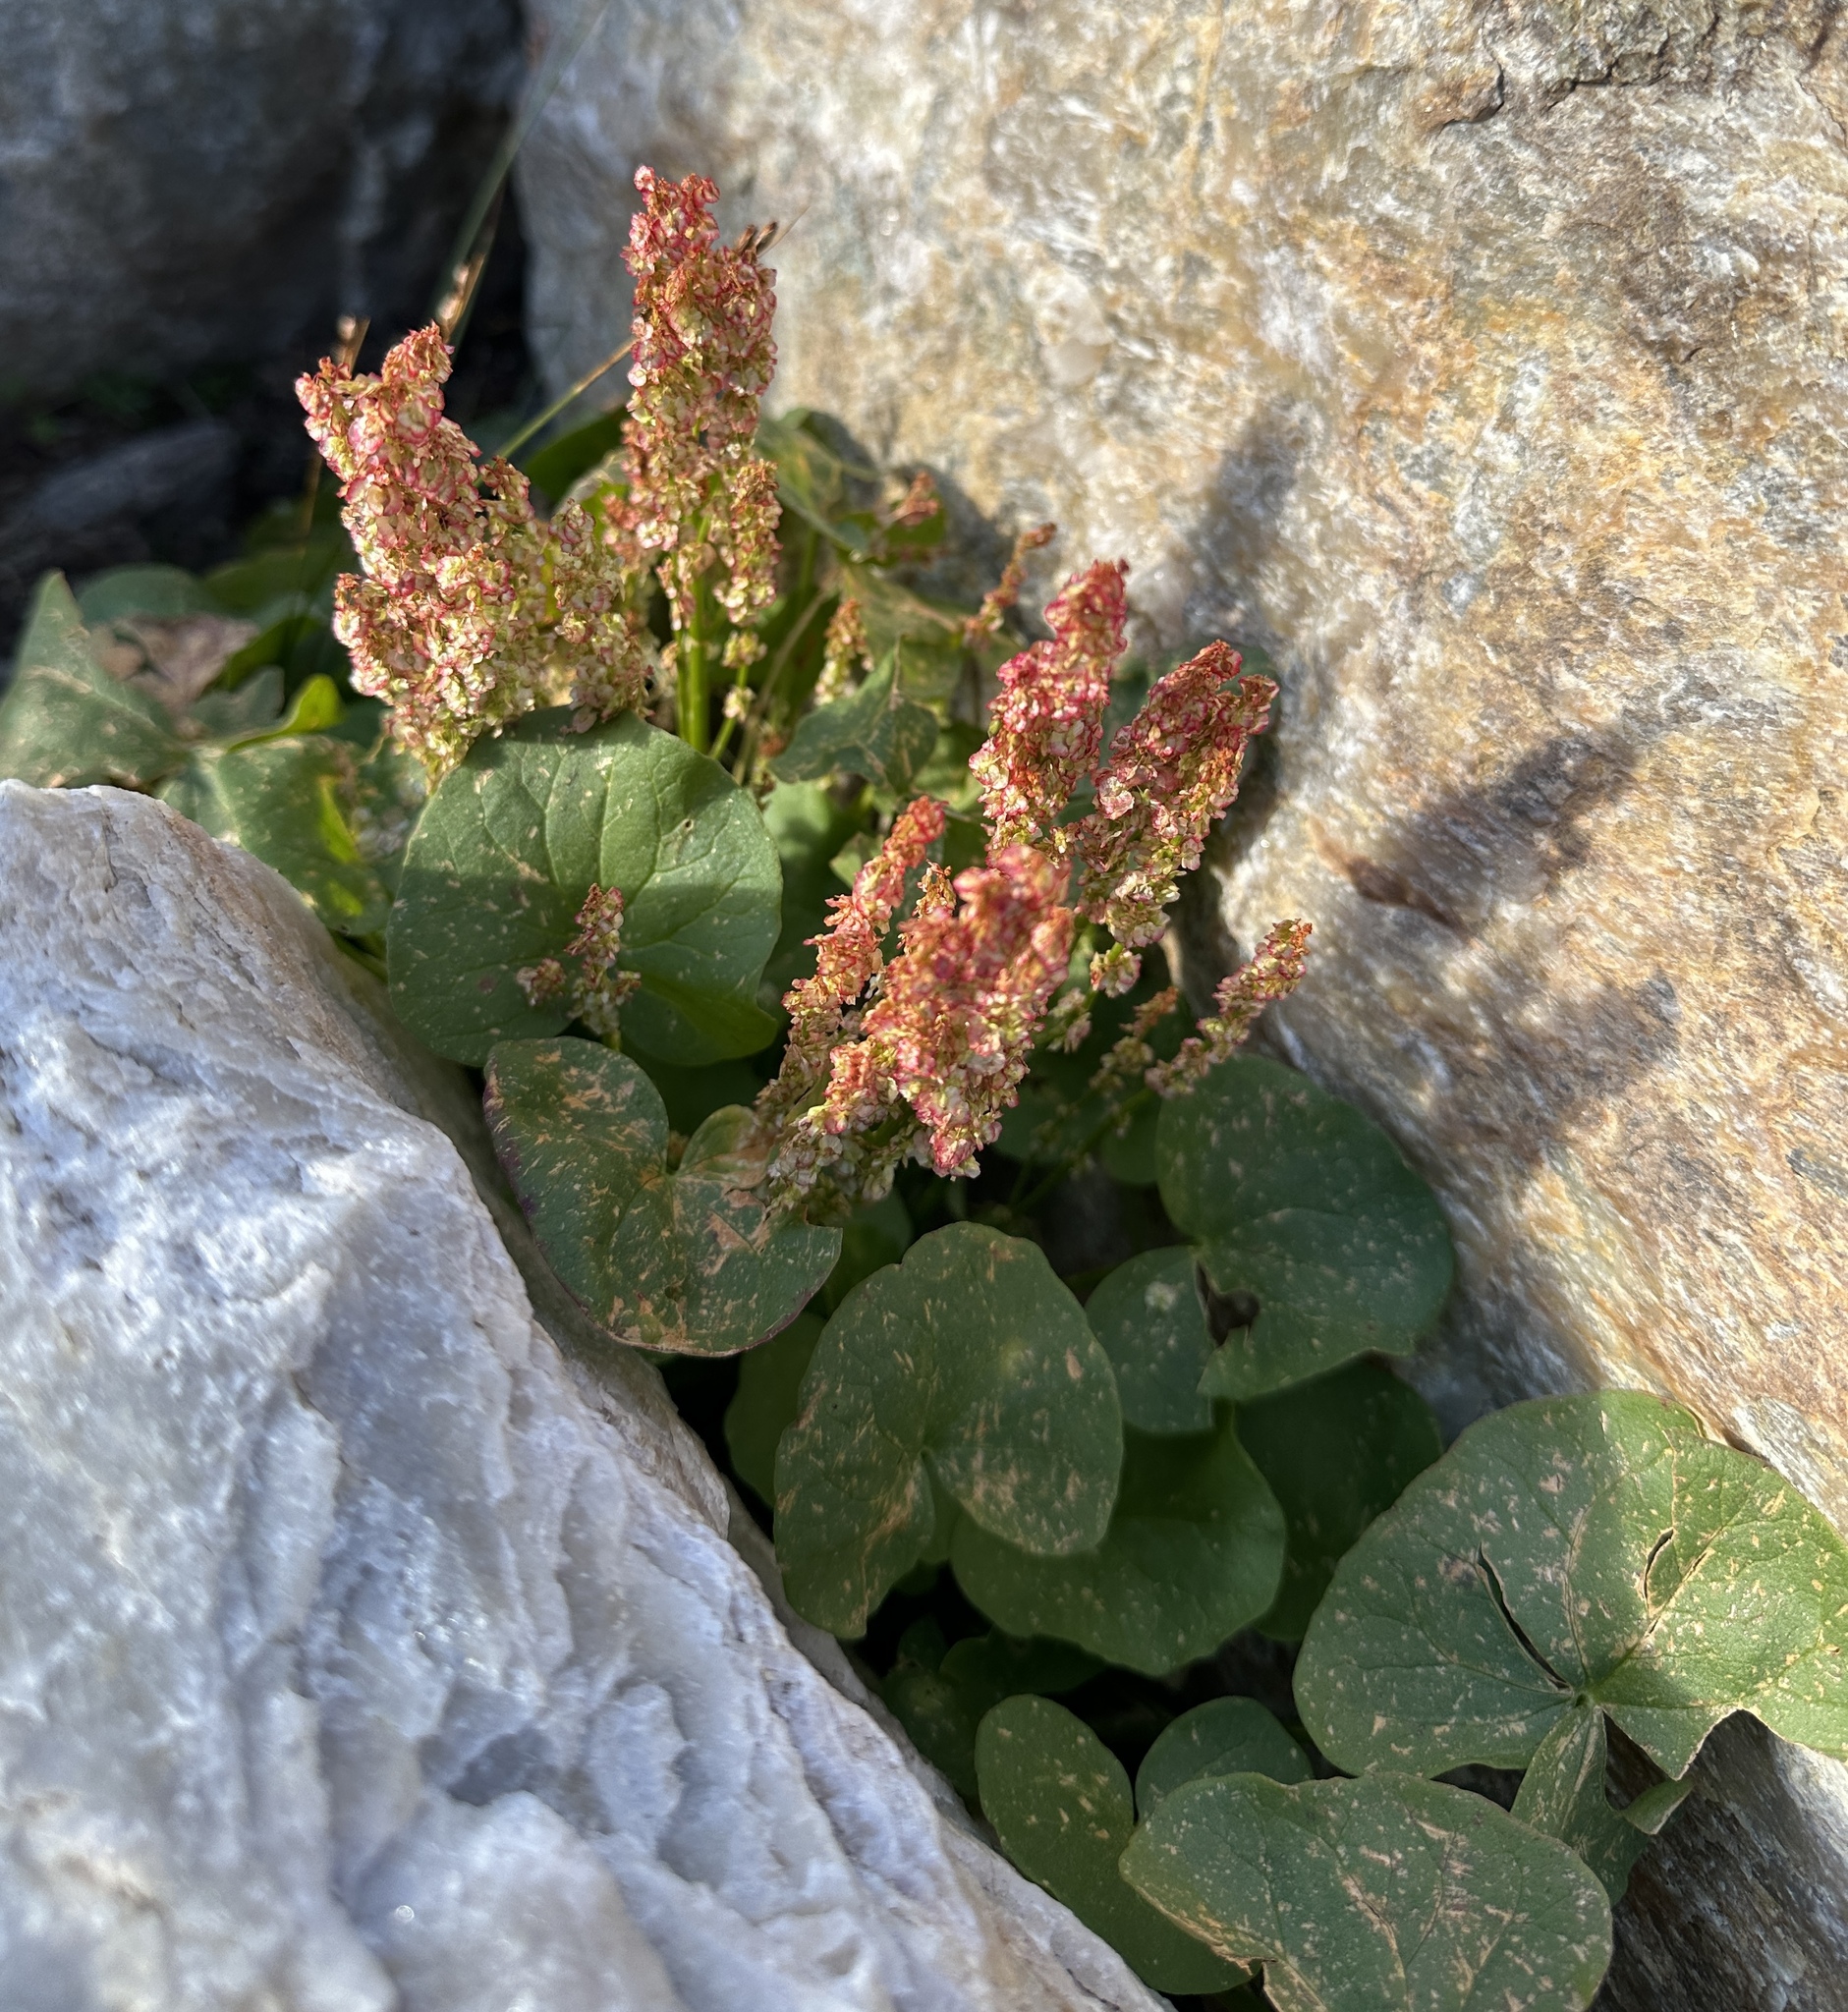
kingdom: Plantae
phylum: Tracheophyta
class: Magnoliopsida
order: Caryophyllales
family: Polygonaceae
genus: Oxyria
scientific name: Oxyria digyna
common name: Alpine mountain-sorrel
